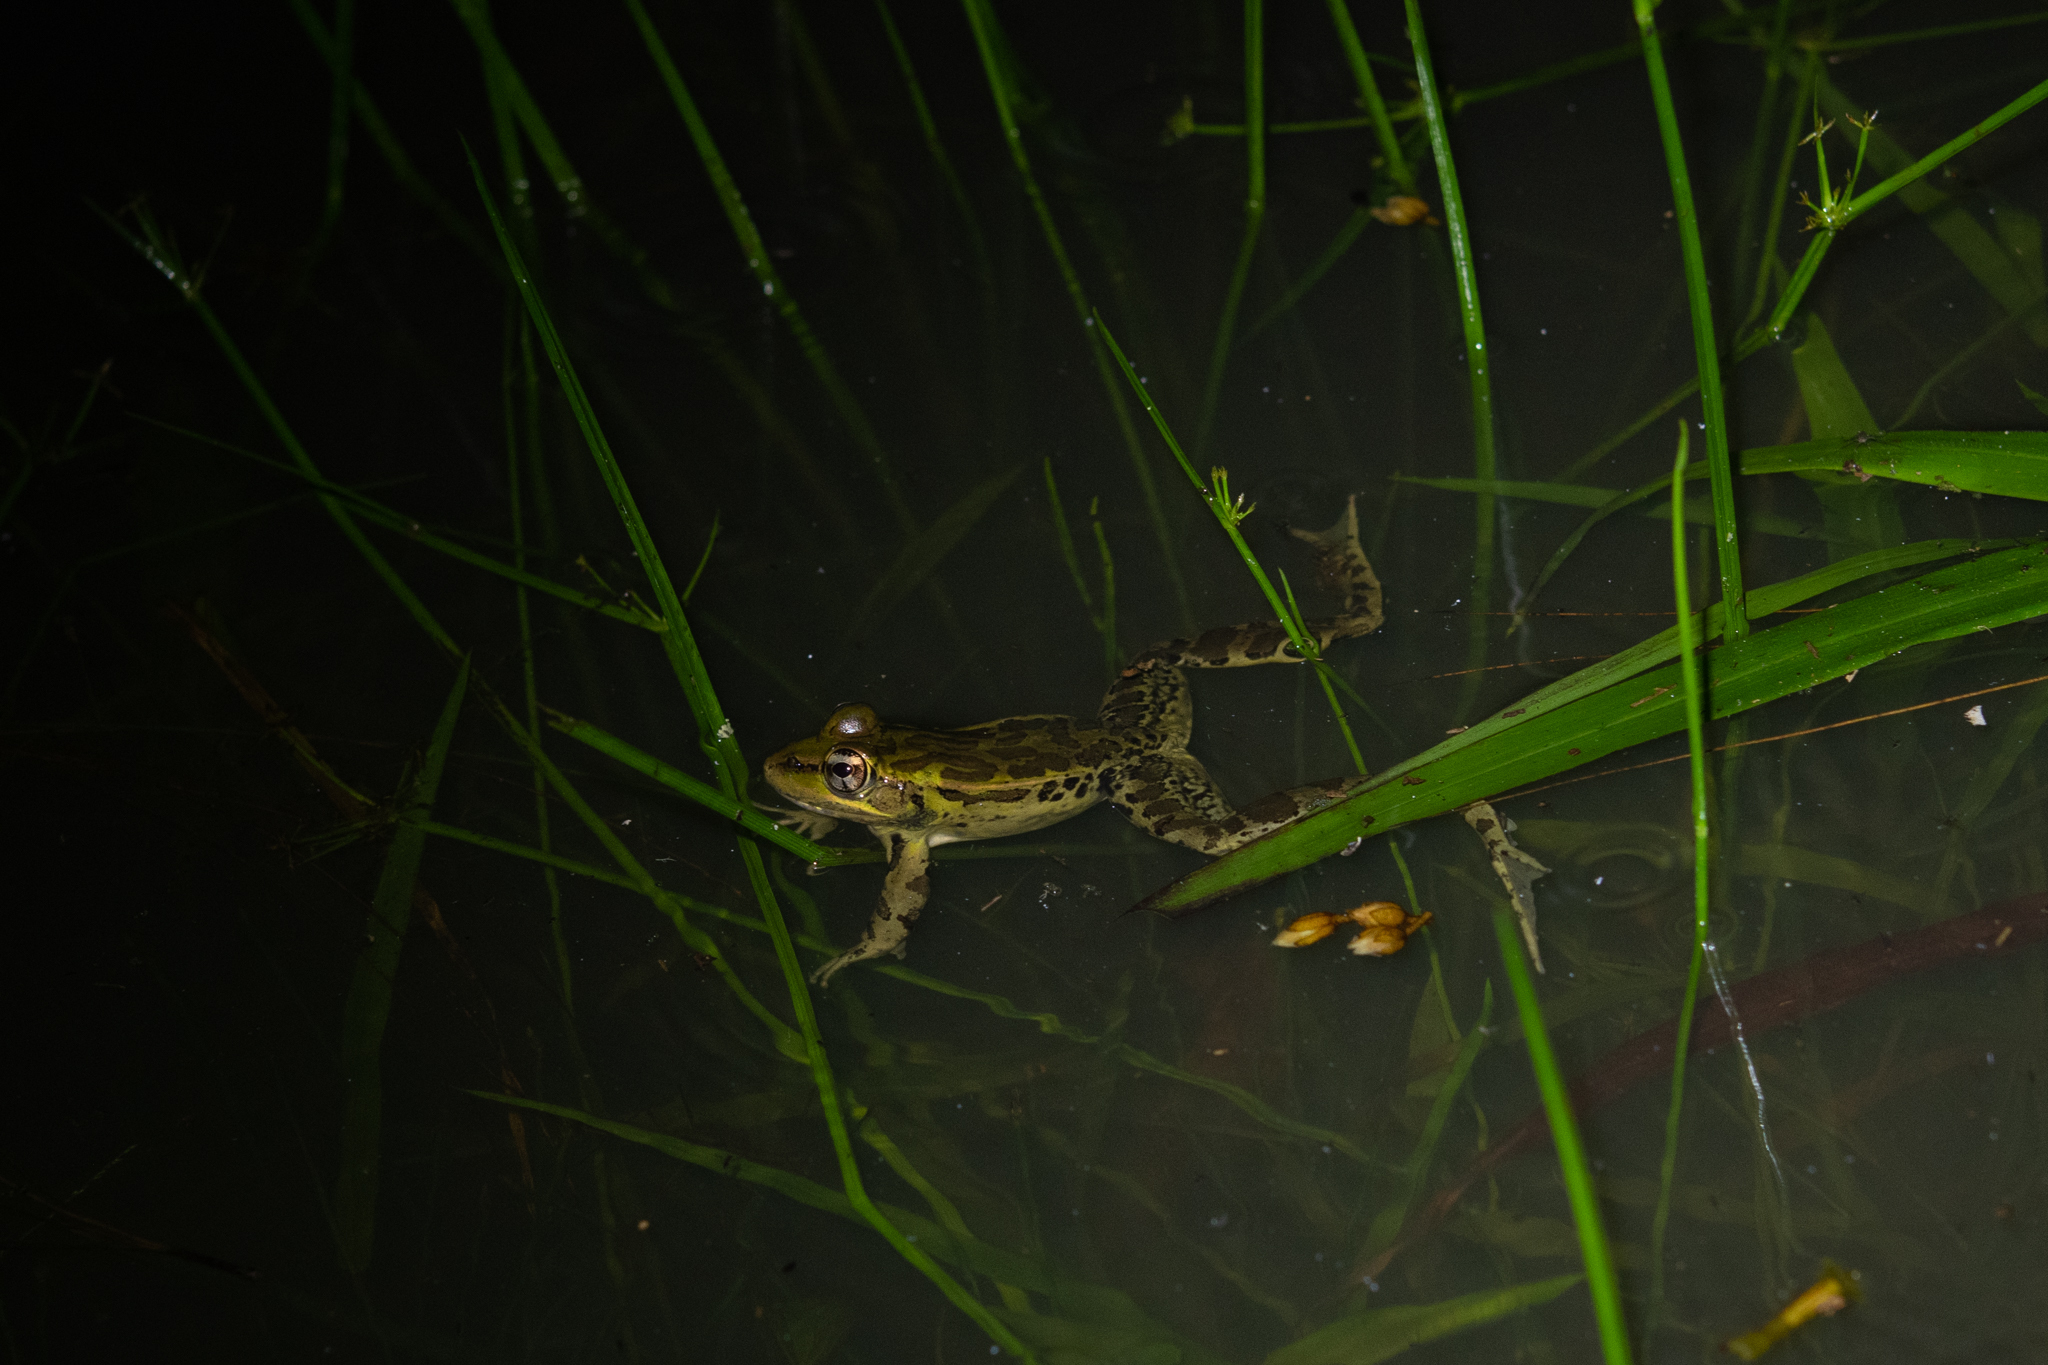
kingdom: Animalia
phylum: Chordata
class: Amphibia
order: Anura
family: Ranidae
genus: Lithobates
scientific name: Lithobates lenca
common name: Lenca leopard frog
